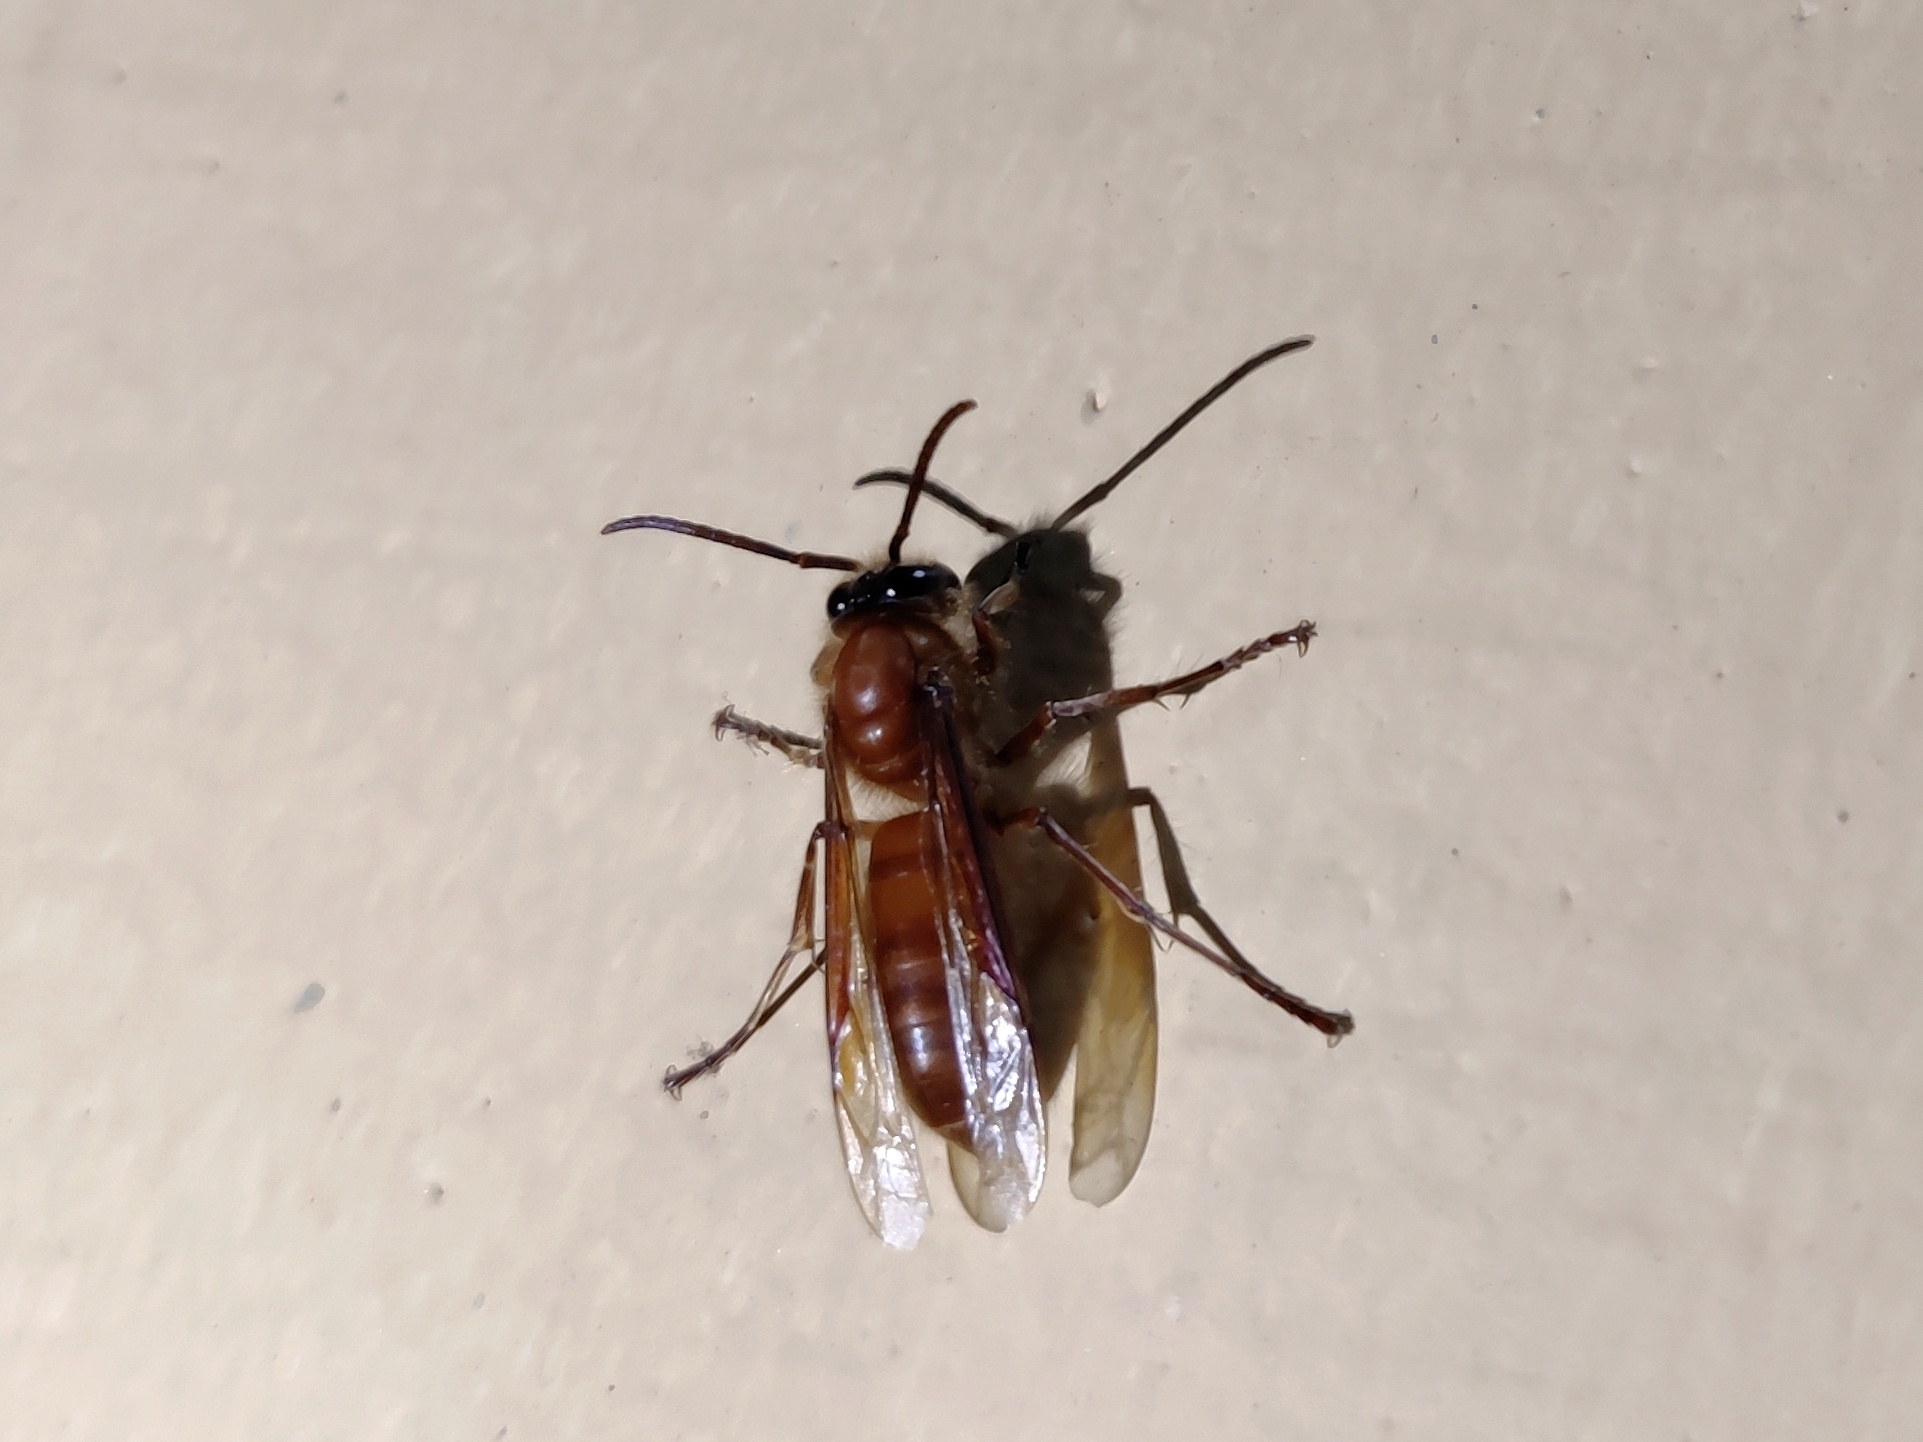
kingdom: Animalia
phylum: Arthropoda
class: Insecta
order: Hymenoptera
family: Vespidae
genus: Provespa
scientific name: Provespa barthelemyi
